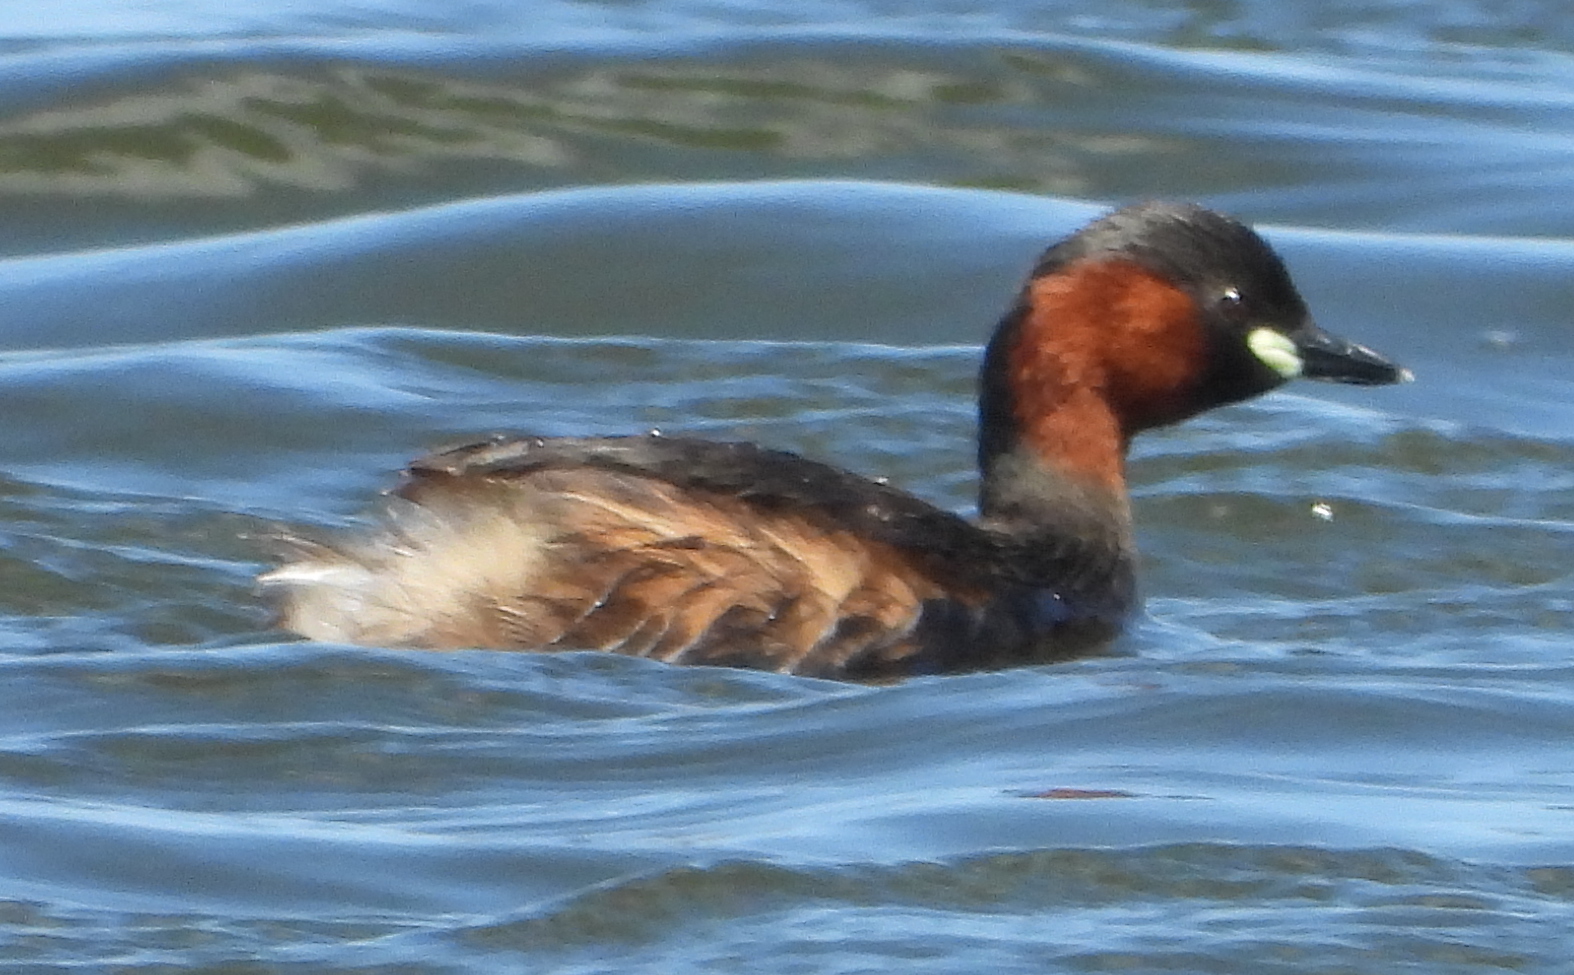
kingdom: Animalia
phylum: Chordata
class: Aves
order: Podicipediformes
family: Podicipedidae
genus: Tachybaptus
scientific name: Tachybaptus ruficollis
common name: Little grebe
